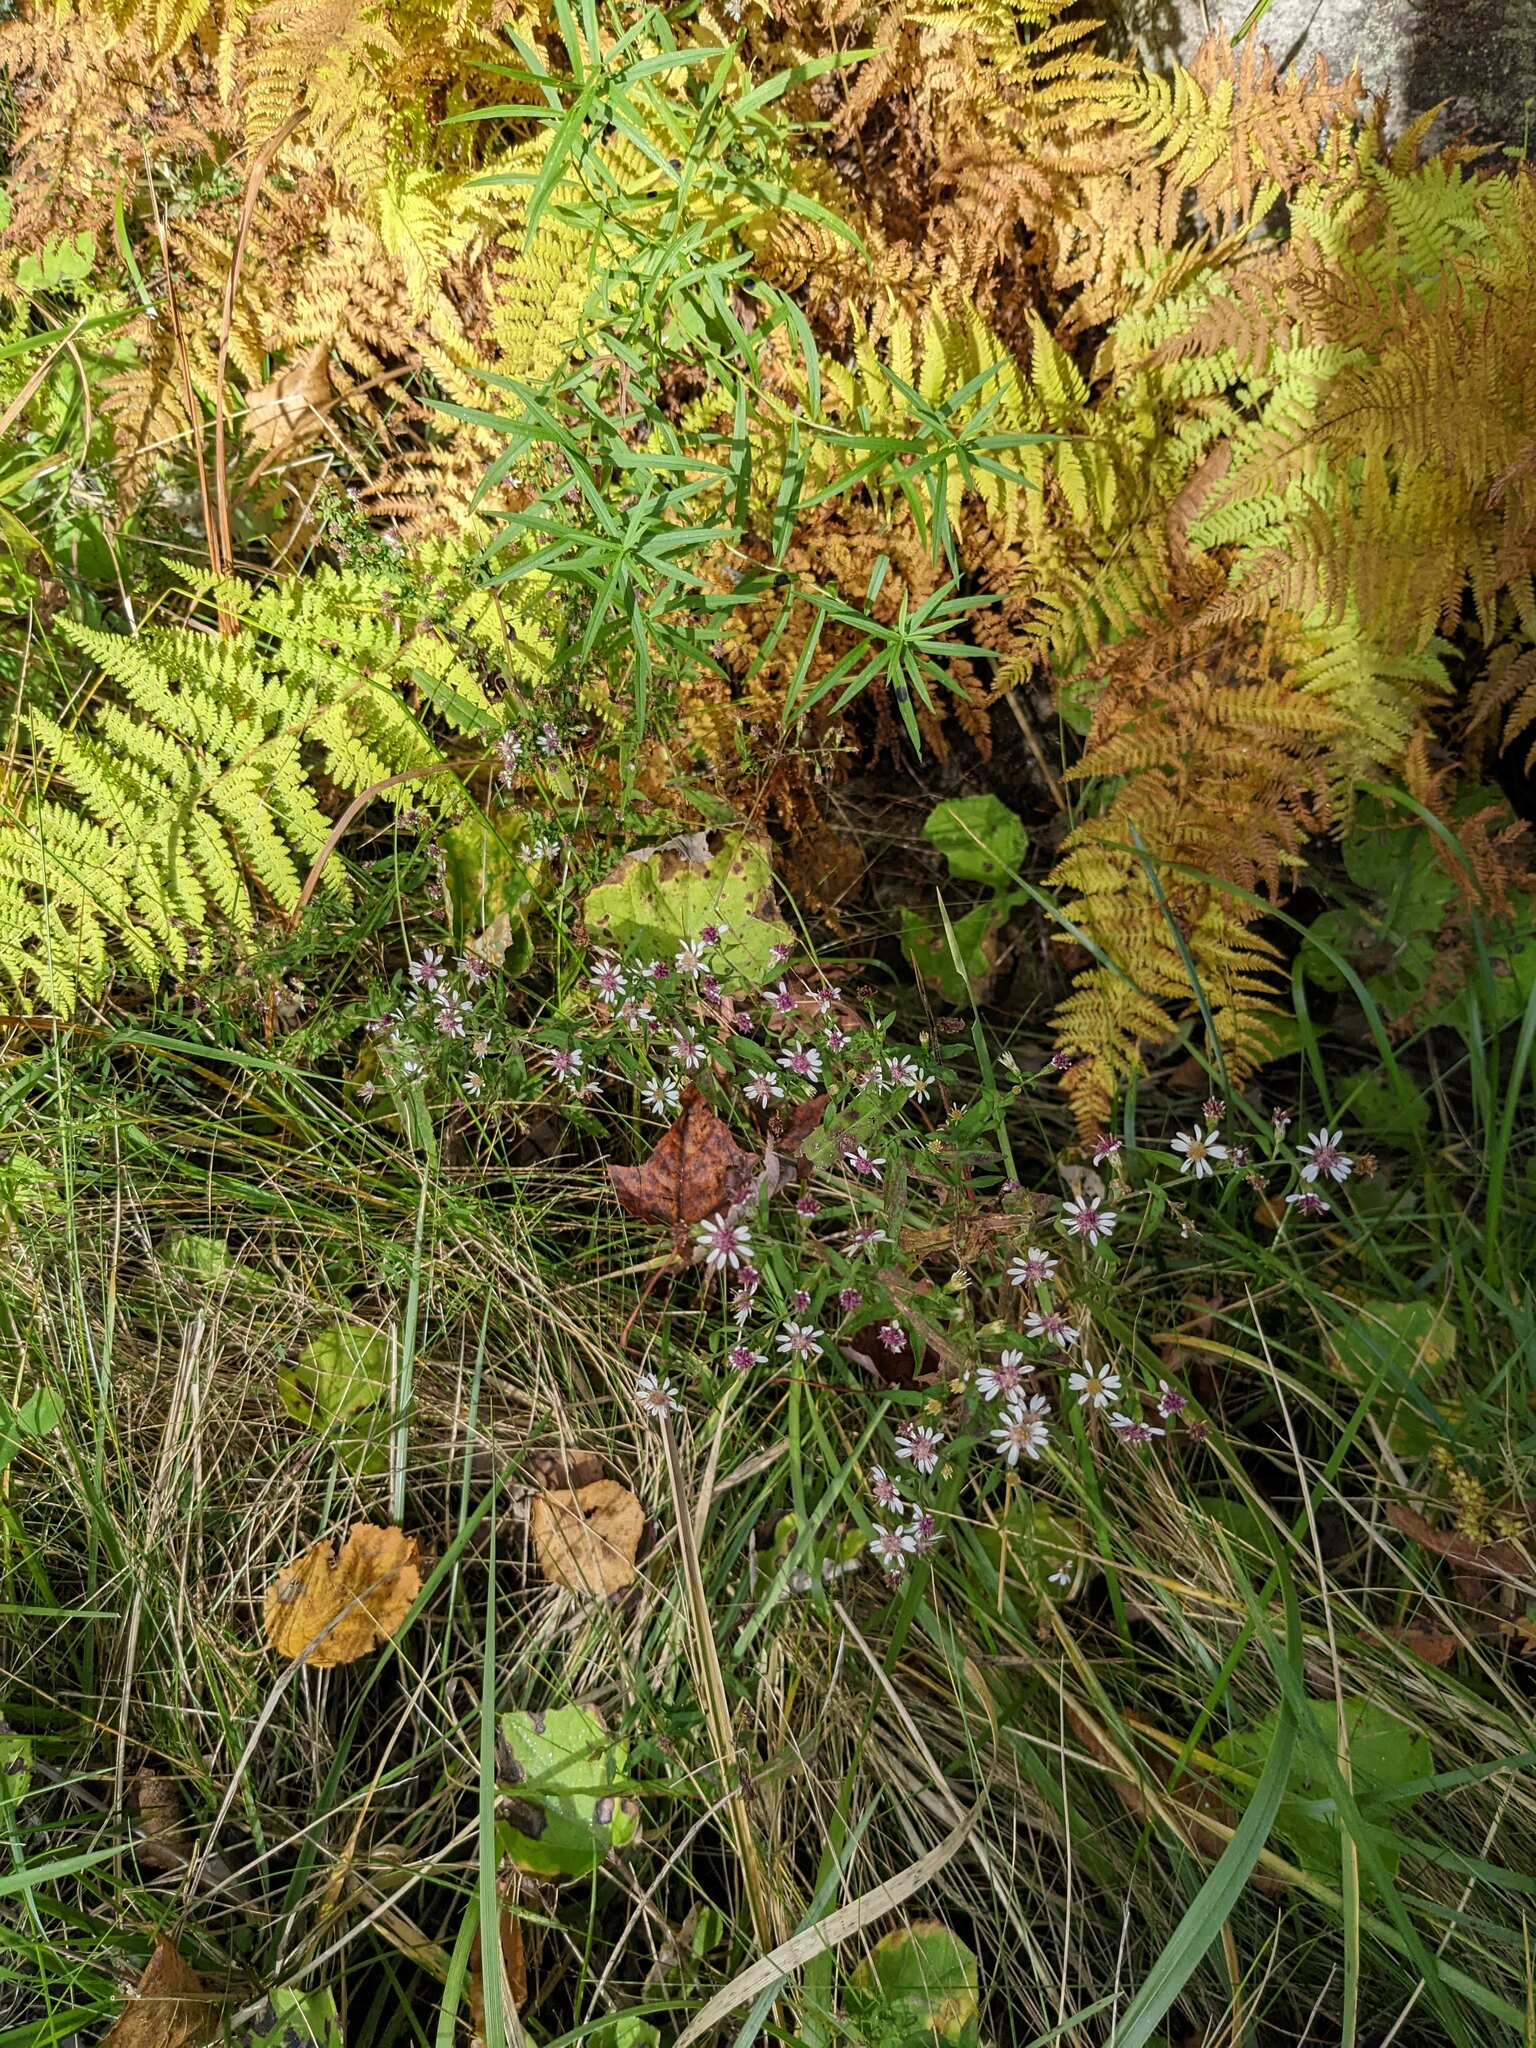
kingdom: Plantae
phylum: Tracheophyta
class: Magnoliopsida
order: Asterales
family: Asteraceae
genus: Symphyotrichum
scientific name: Symphyotrichum lateriflorum
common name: Calico aster
